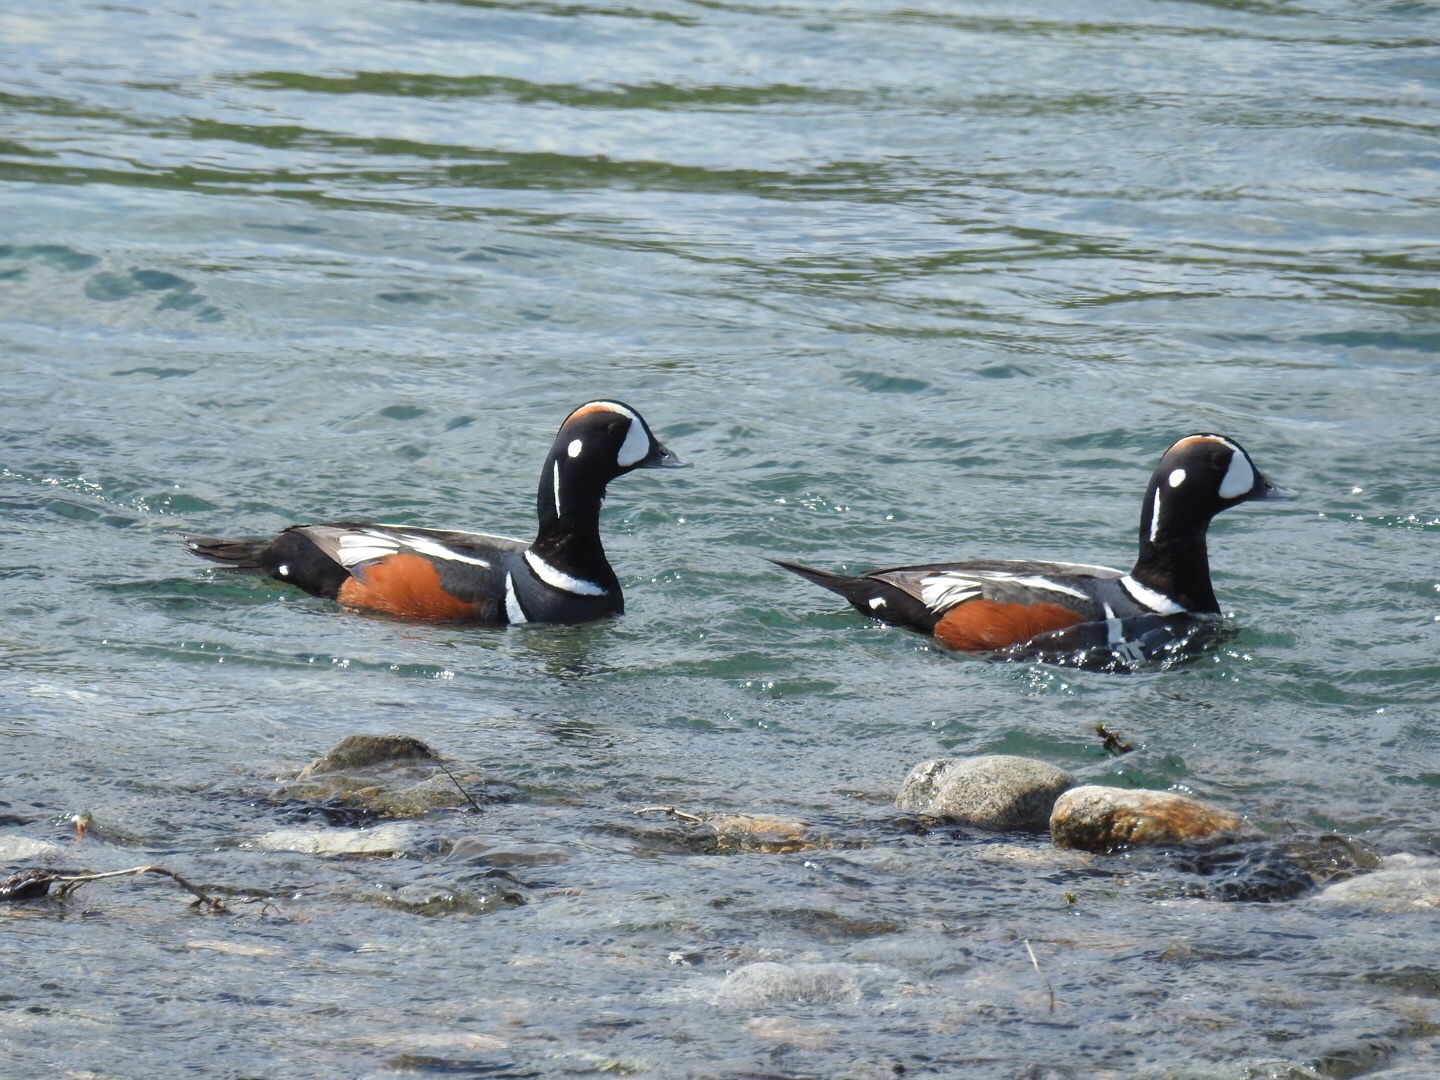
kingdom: Animalia
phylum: Chordata
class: Aves
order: Anseriformes
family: Anatidae
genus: Histrionicus
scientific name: Histrionicus histrionicus
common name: Harlequin duck
